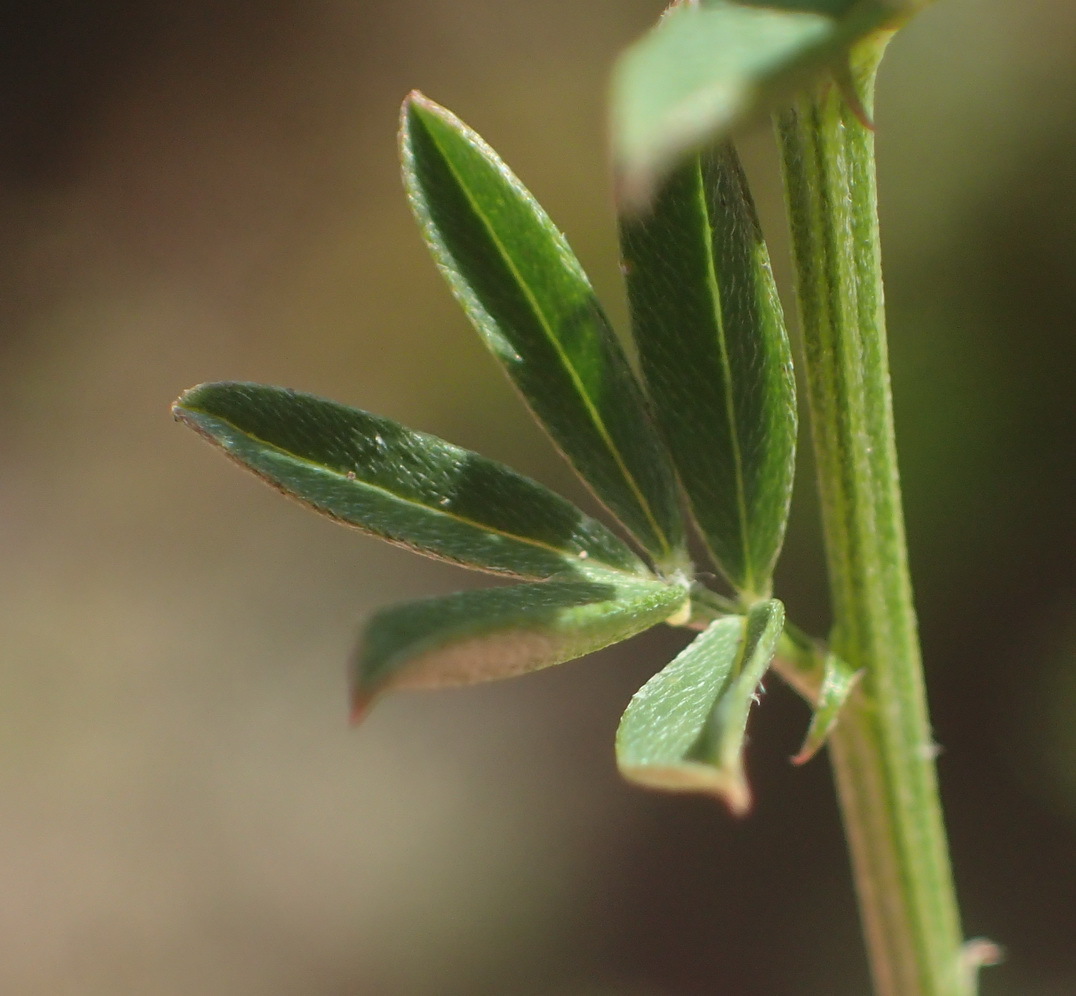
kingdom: Plantae
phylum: Tracheophyta
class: Magnoliopsida
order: Fabales
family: Fabaceae
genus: Indigofera
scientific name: Indigofera priorii
